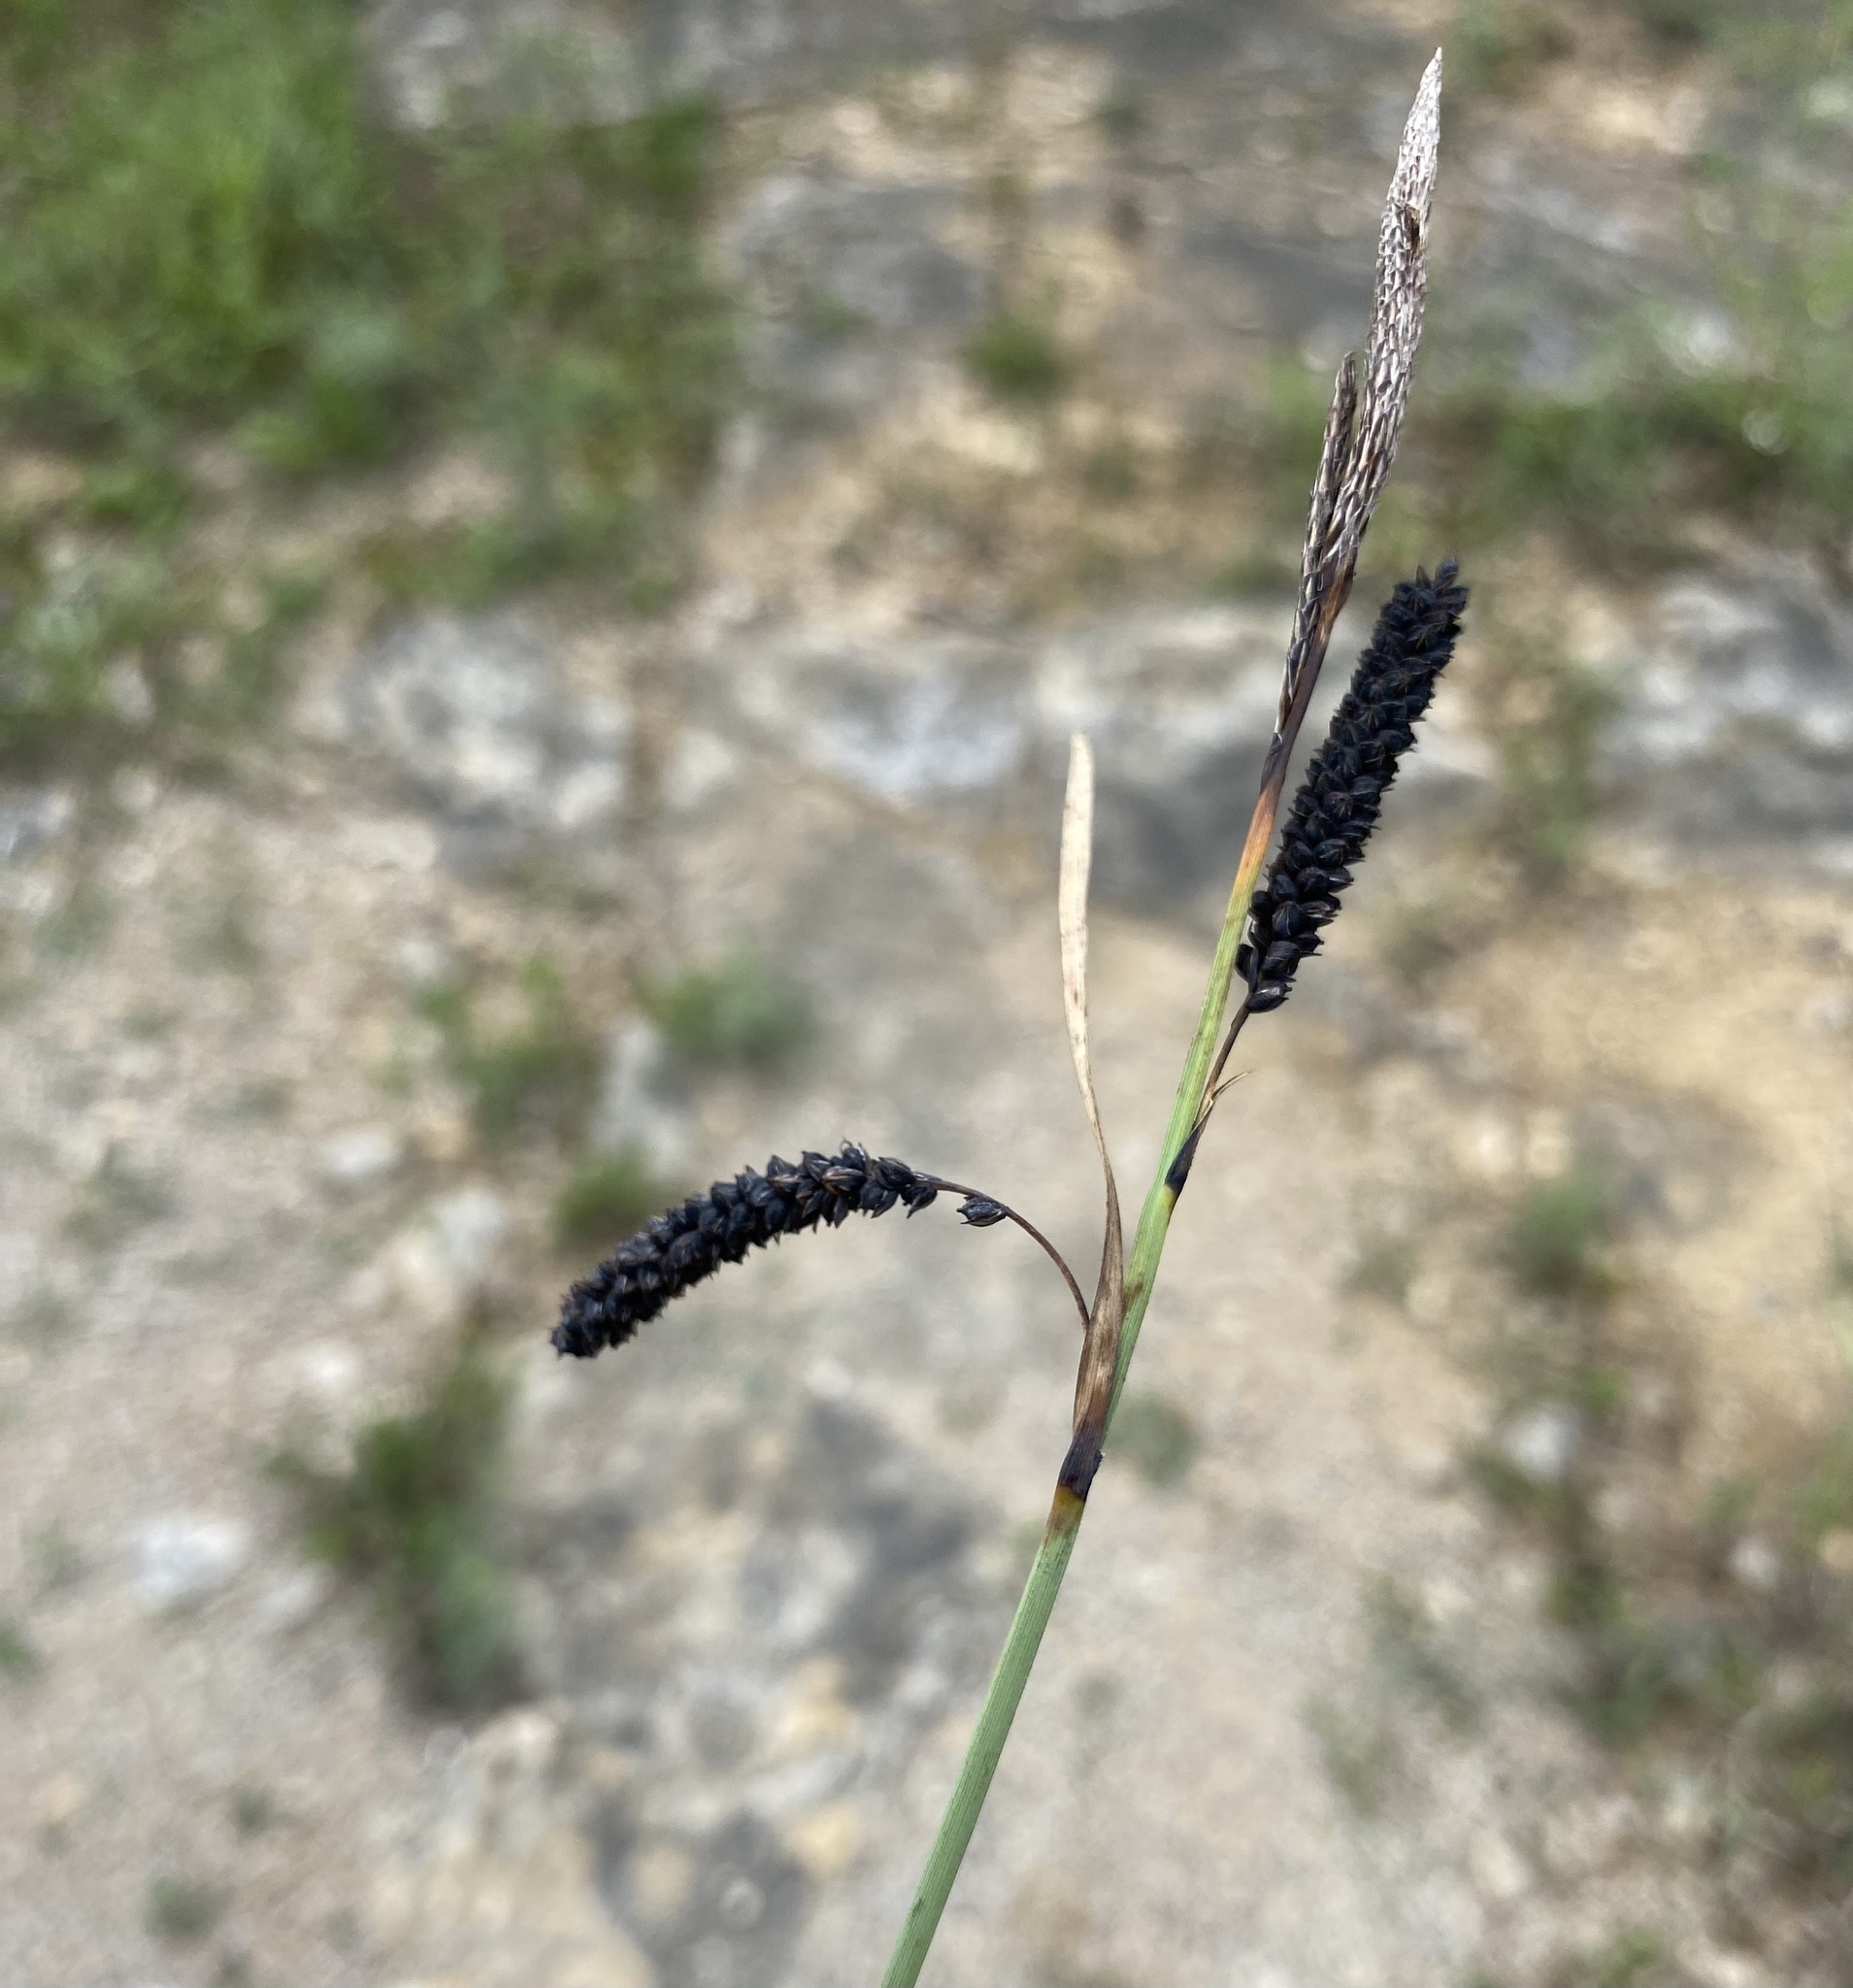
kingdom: Plantae
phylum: Tracheophyta
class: Liliopsida
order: Poales
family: Cyperaceae
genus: Carex
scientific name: Carex flacca
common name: Glaucous sedge
